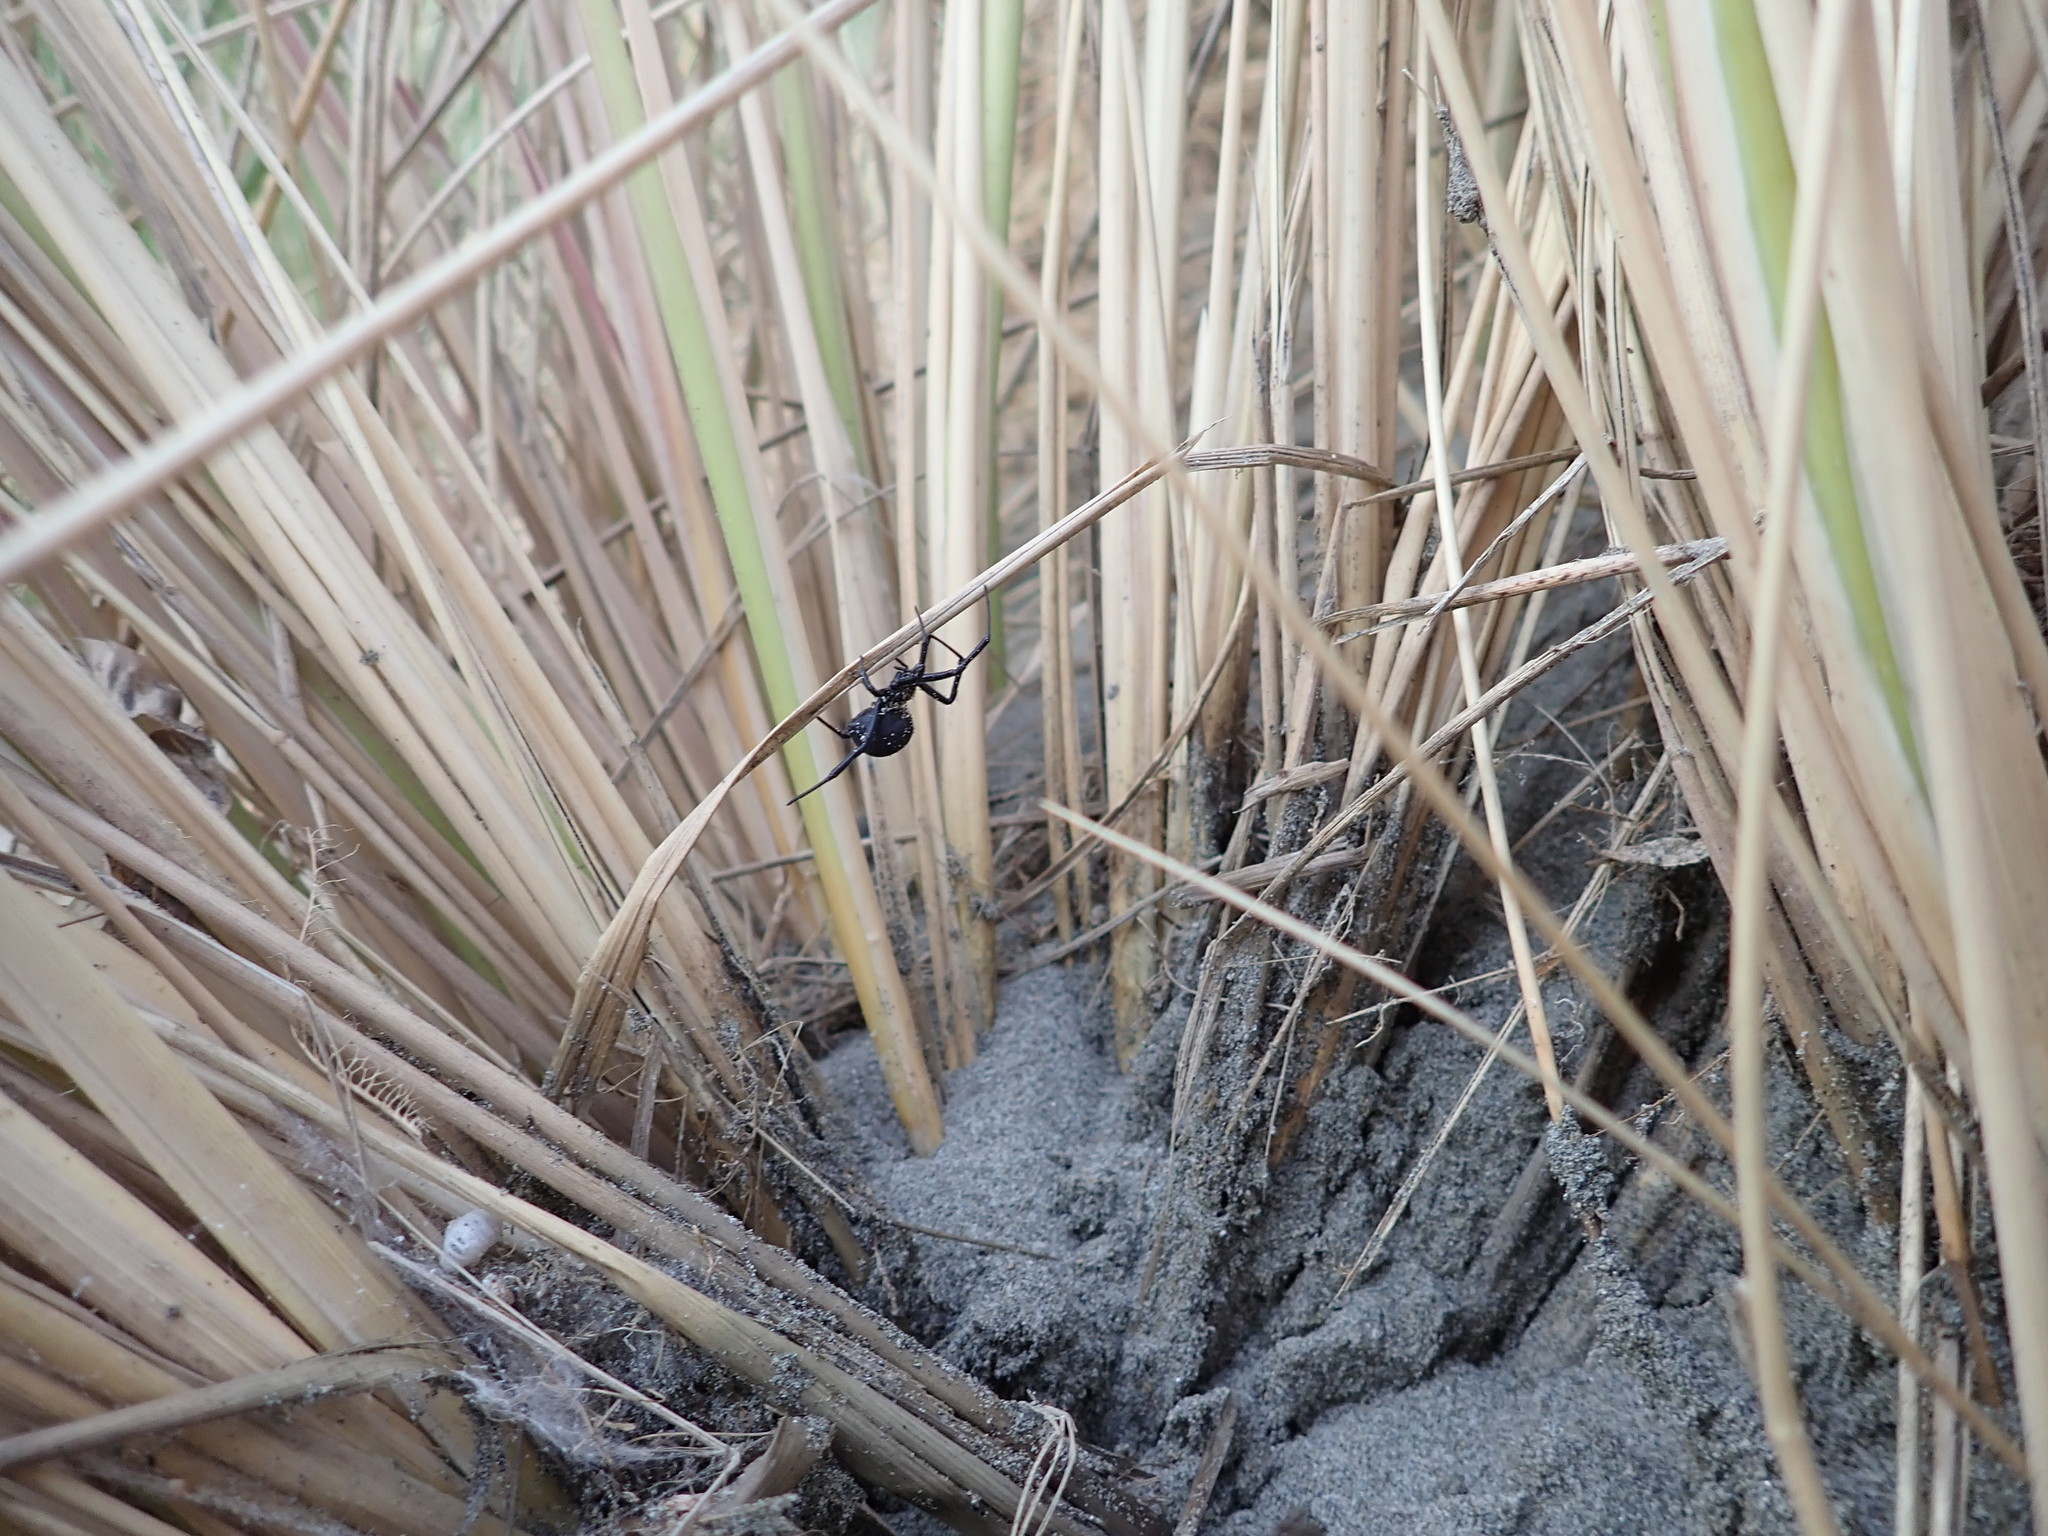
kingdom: Animalia
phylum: Arthropoda
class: Arachnida
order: Araneae
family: Theridiidae
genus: Latrodectus
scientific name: Latrodectus katipo
